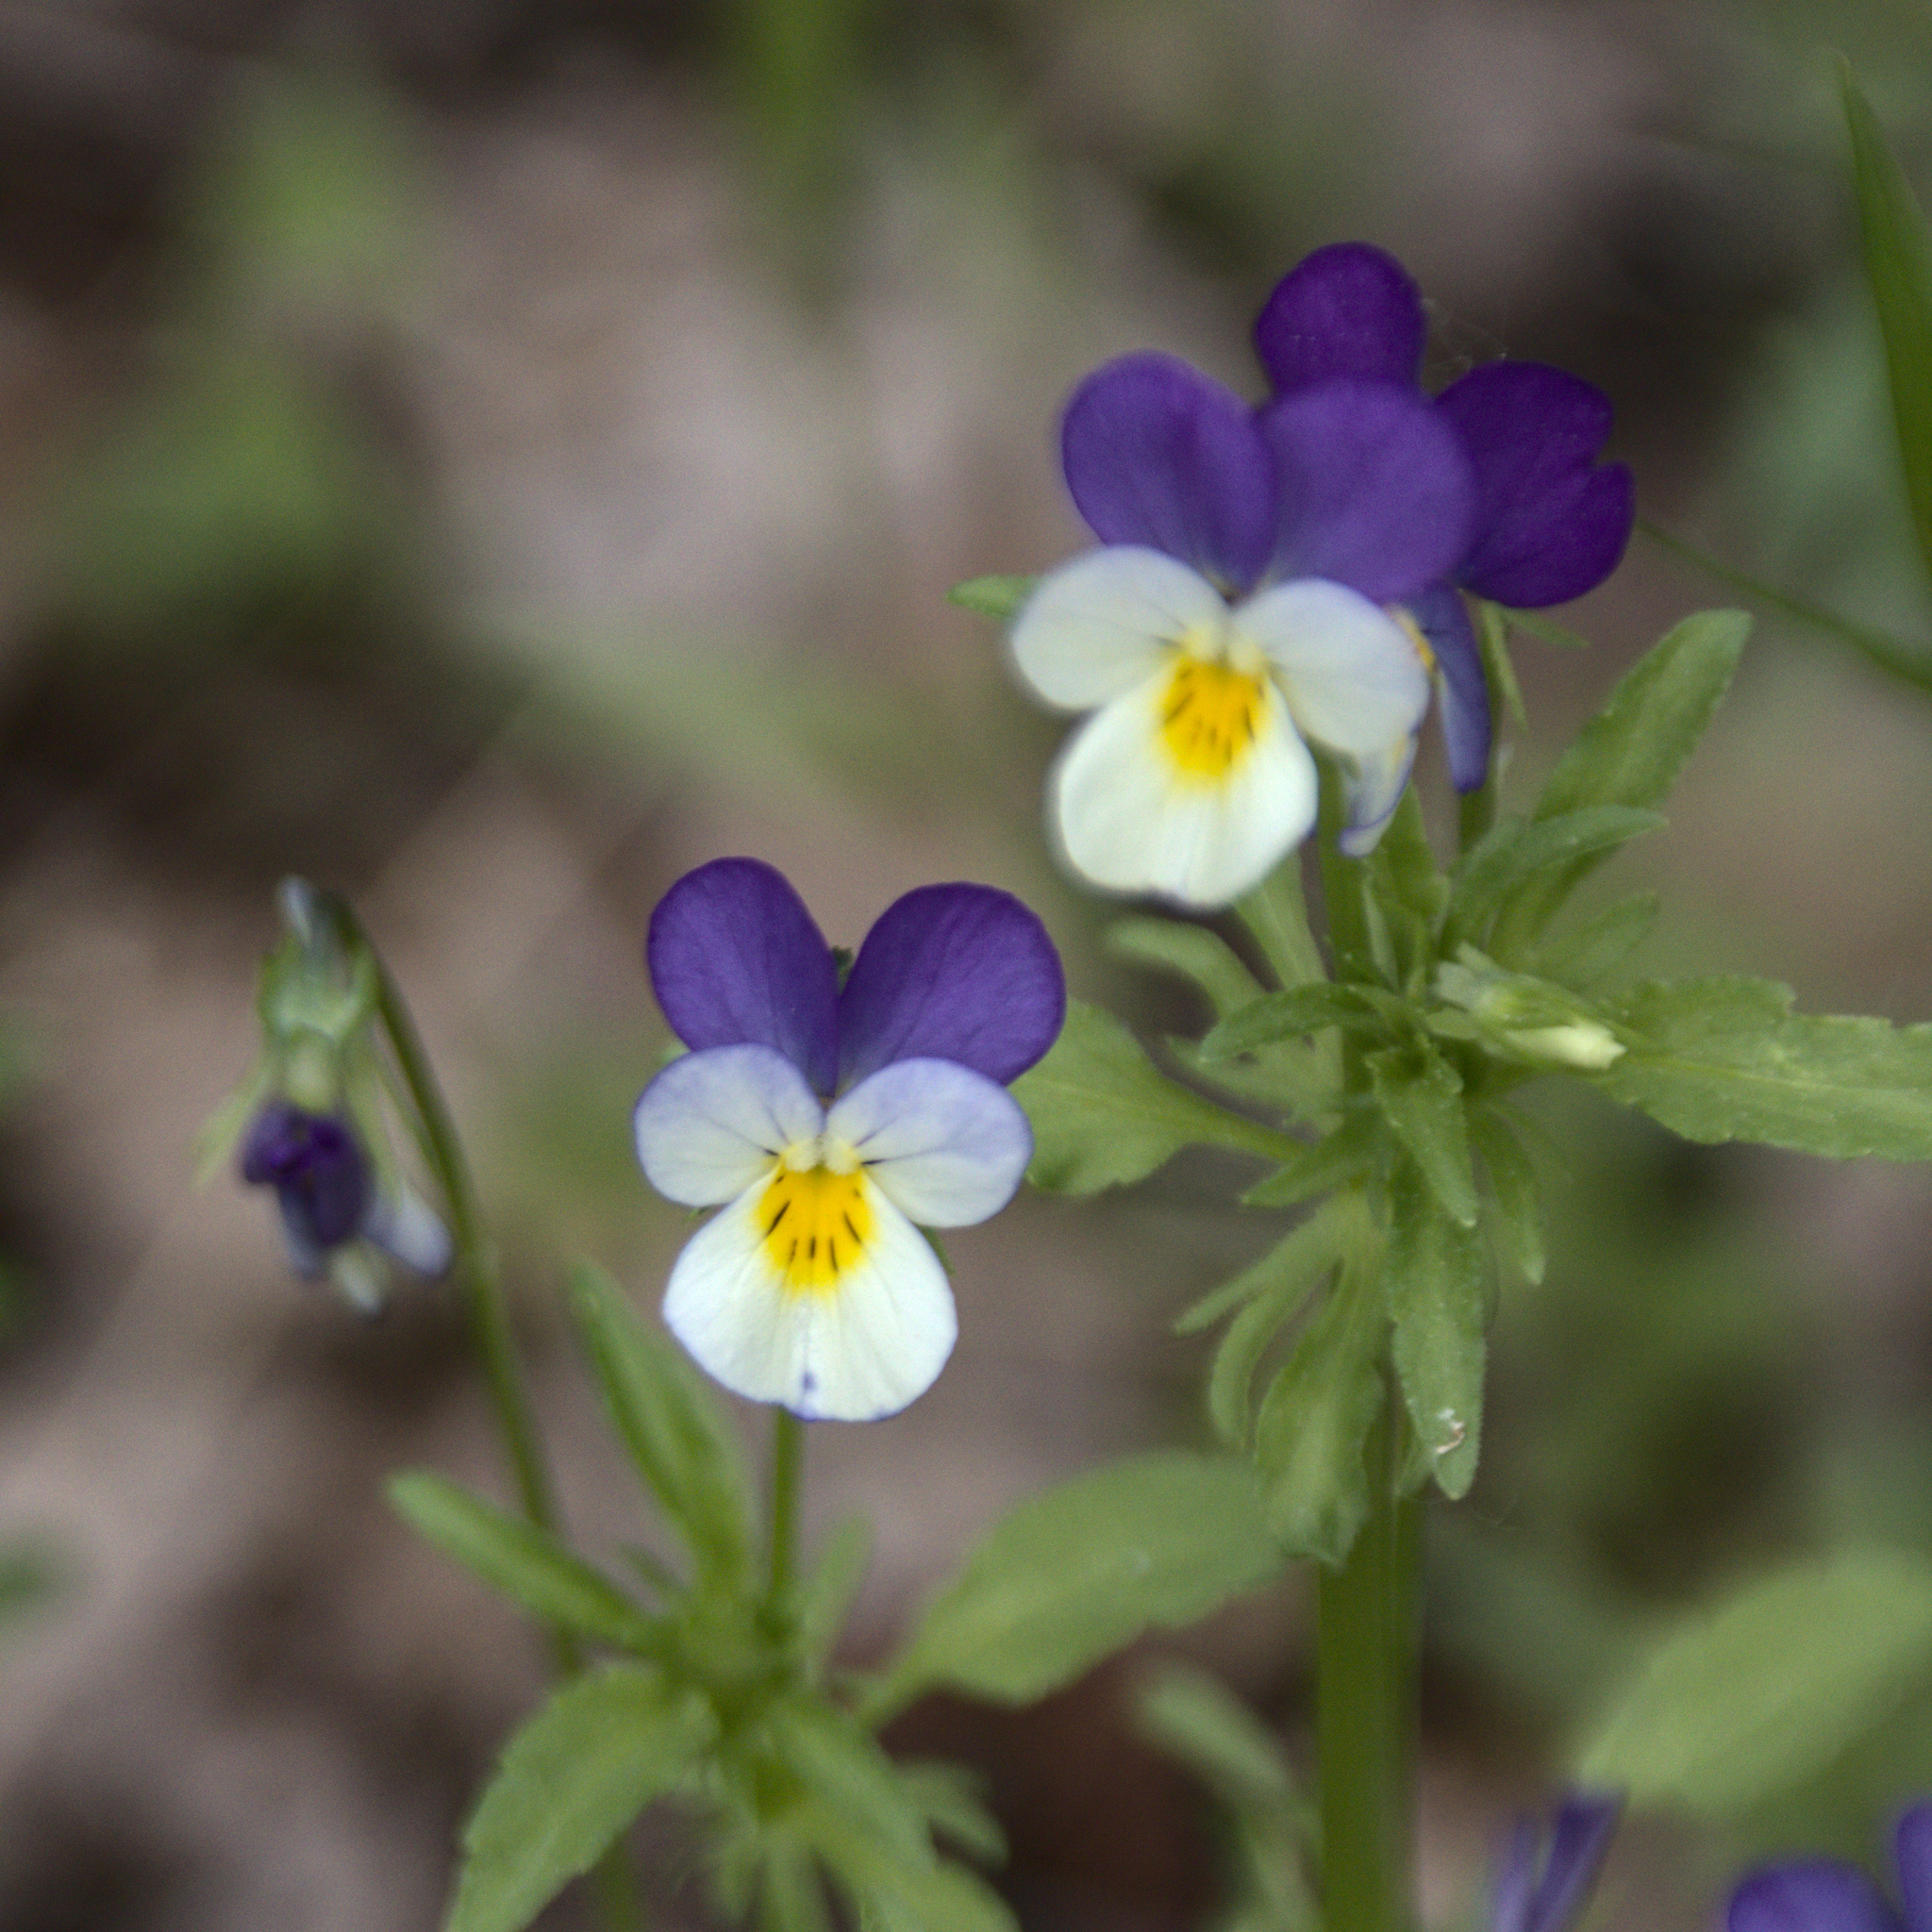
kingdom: Plantae
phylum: Tracheophyta
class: Magnoliopsida
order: Malpighiales
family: Violaceae
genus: Viola
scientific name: Viola tricolor
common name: Pansy
